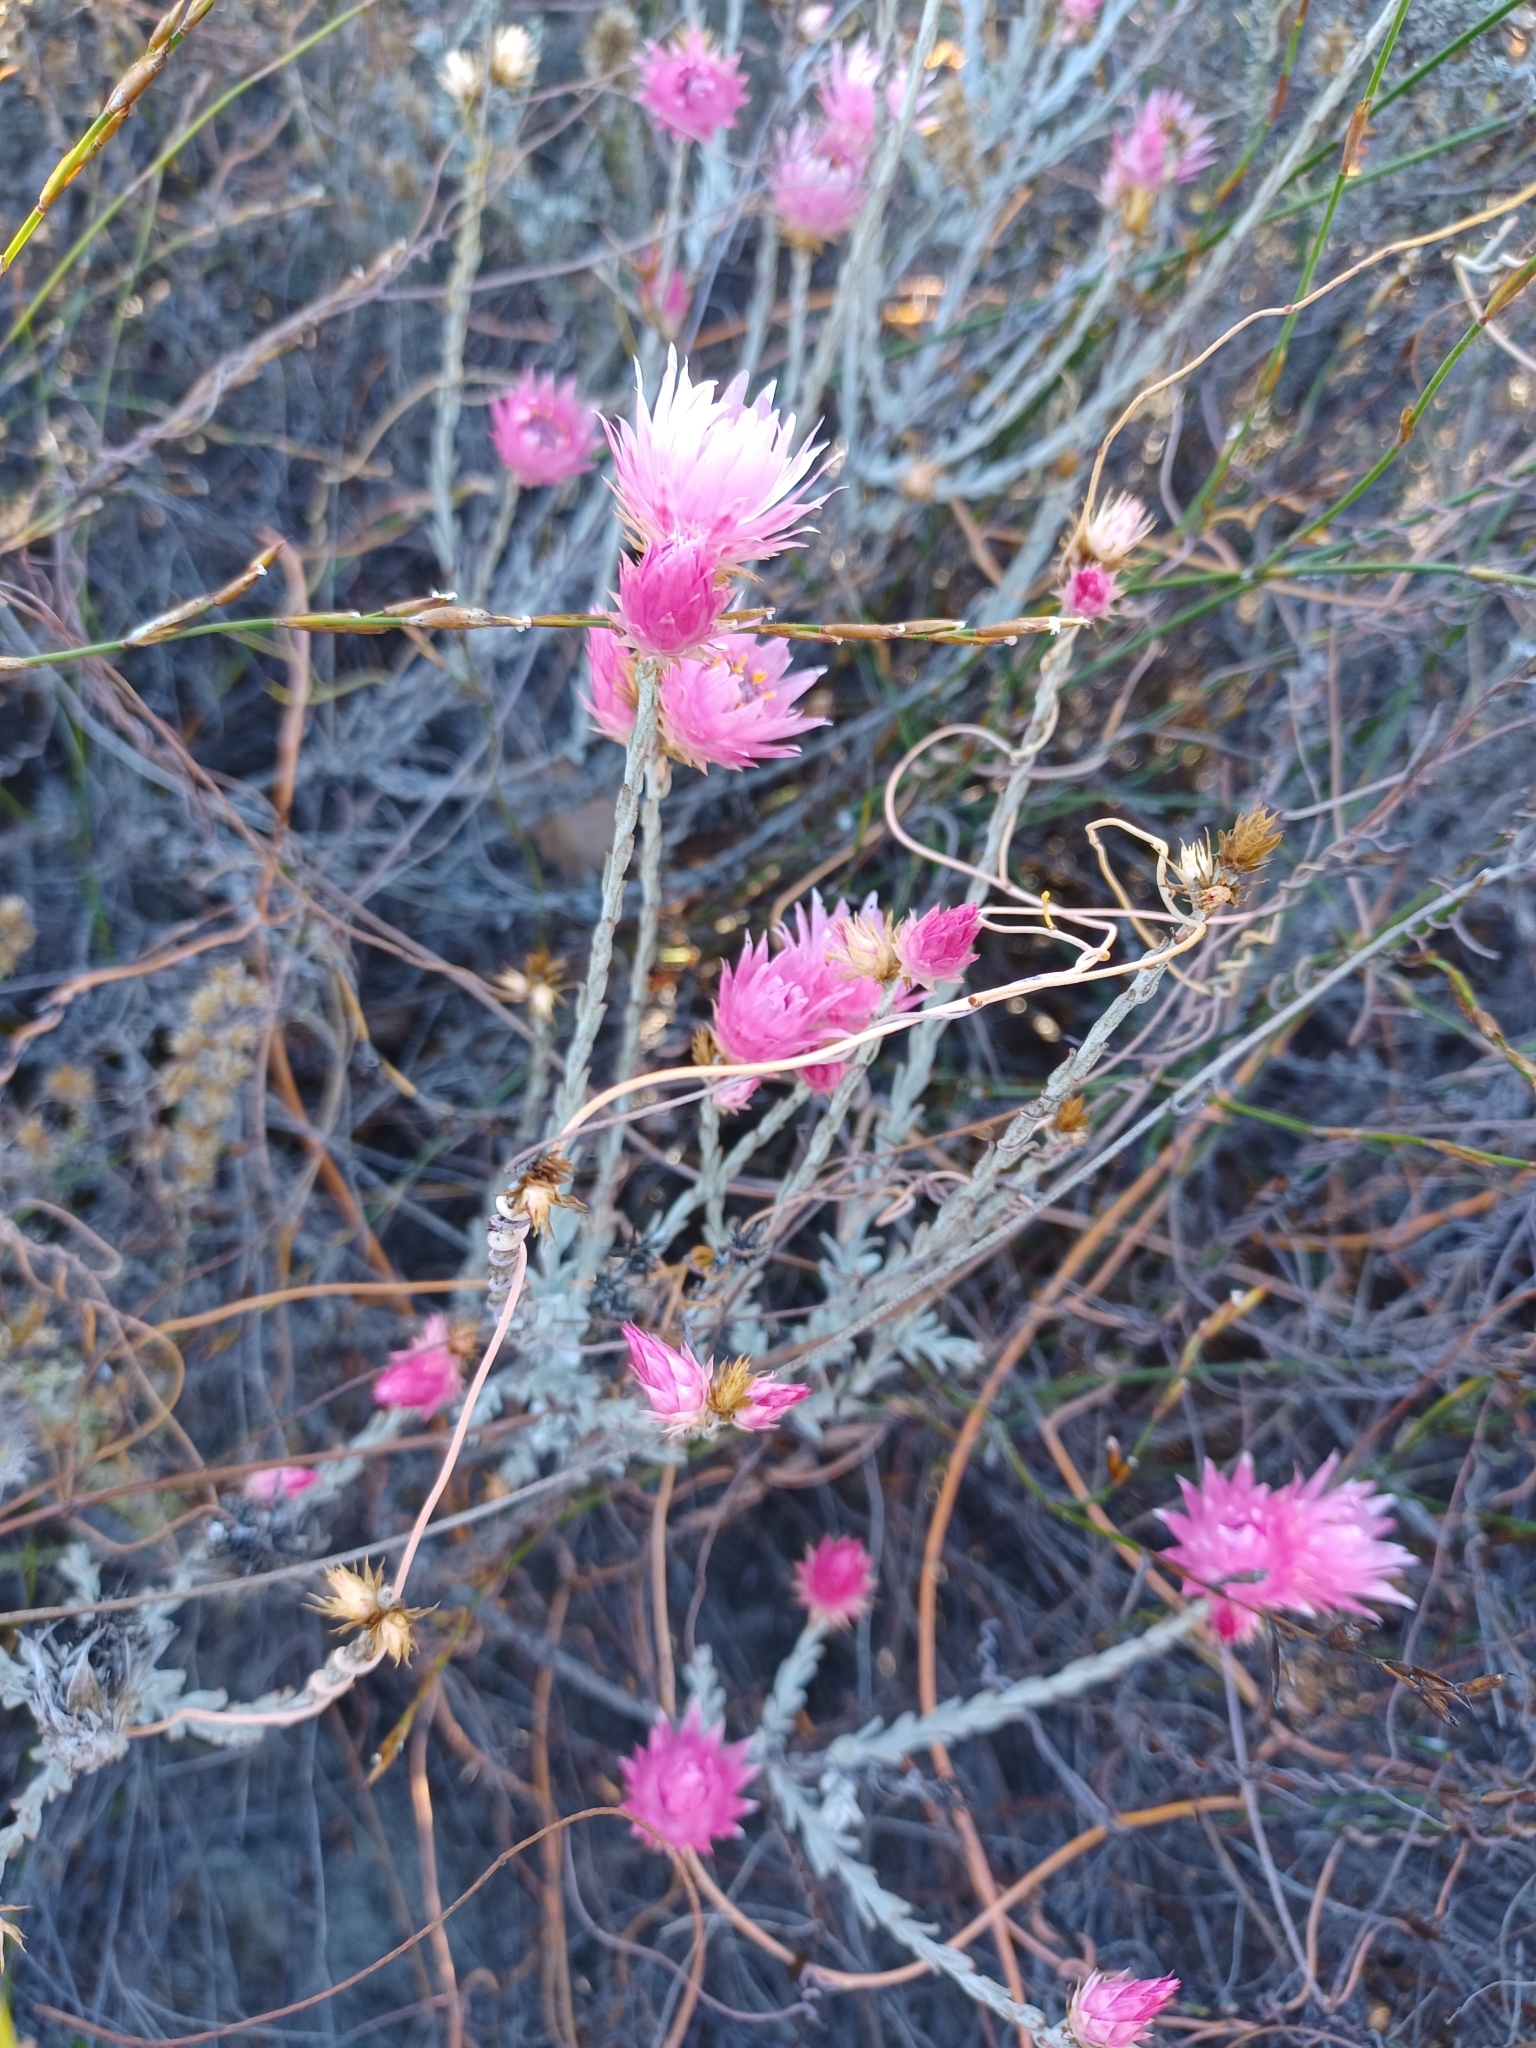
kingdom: Plantae
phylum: Tracheophyta
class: Magnoliopsida
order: Asterales
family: Asteraceae
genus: Syncarpha
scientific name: Syncarpha canescens
